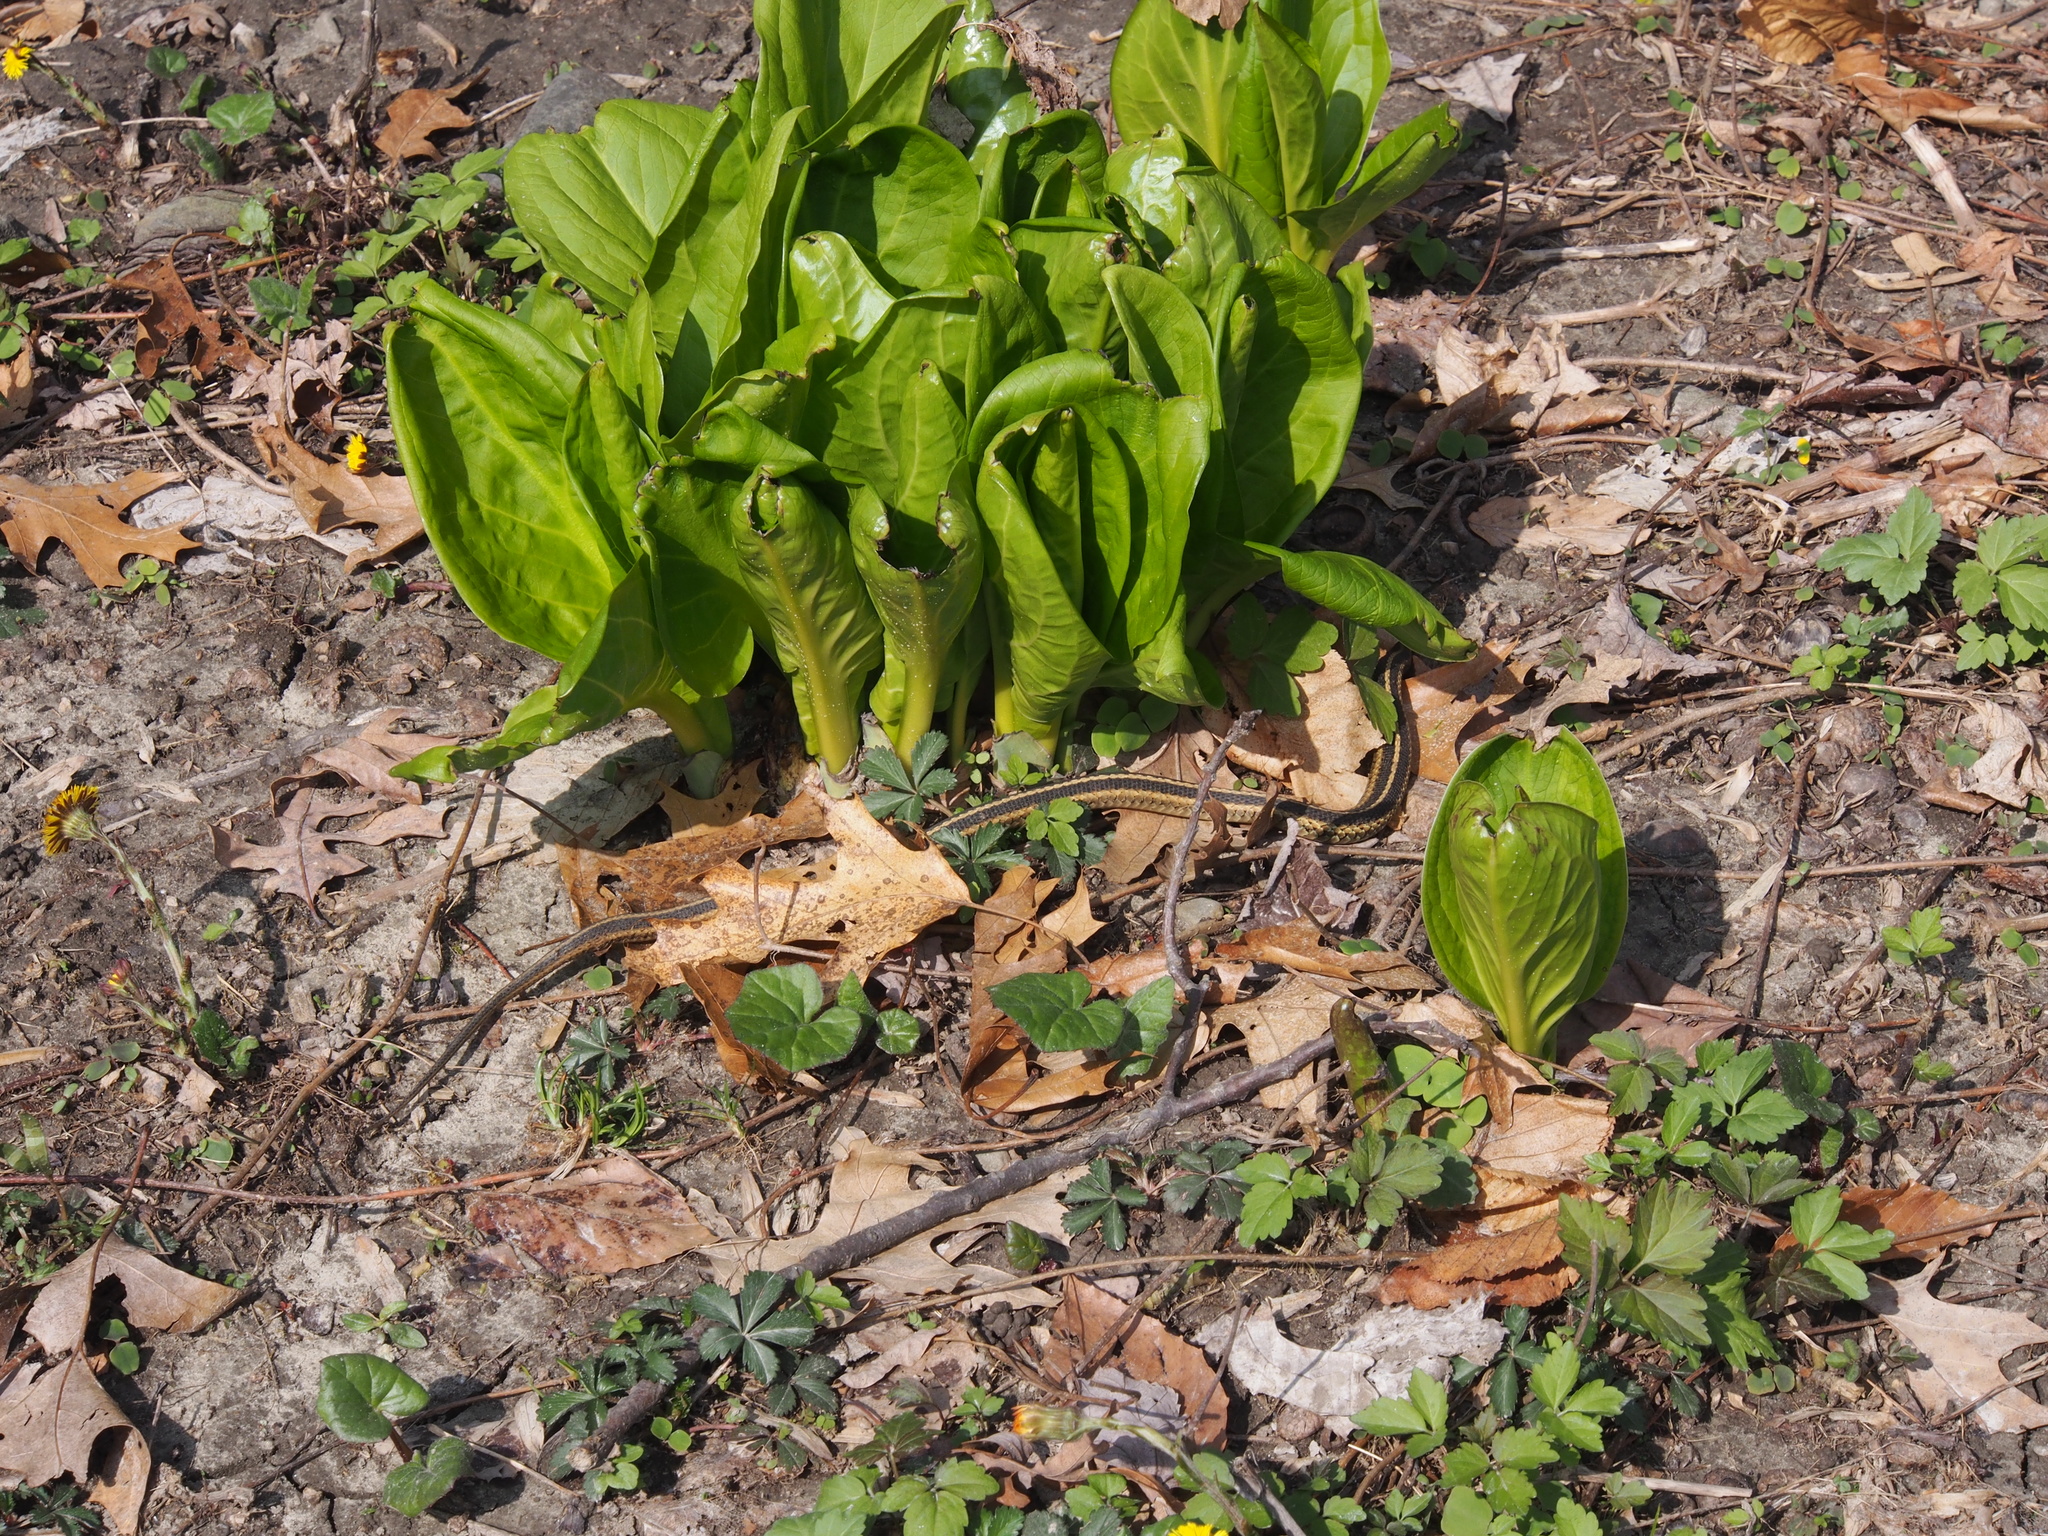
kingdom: Plantae
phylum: Tracheophyta
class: Liliopsida
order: Alismatales
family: Araceae
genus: Symplocarpus
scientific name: Symplocarpus foetidus
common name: Eastern skunk cabbage
